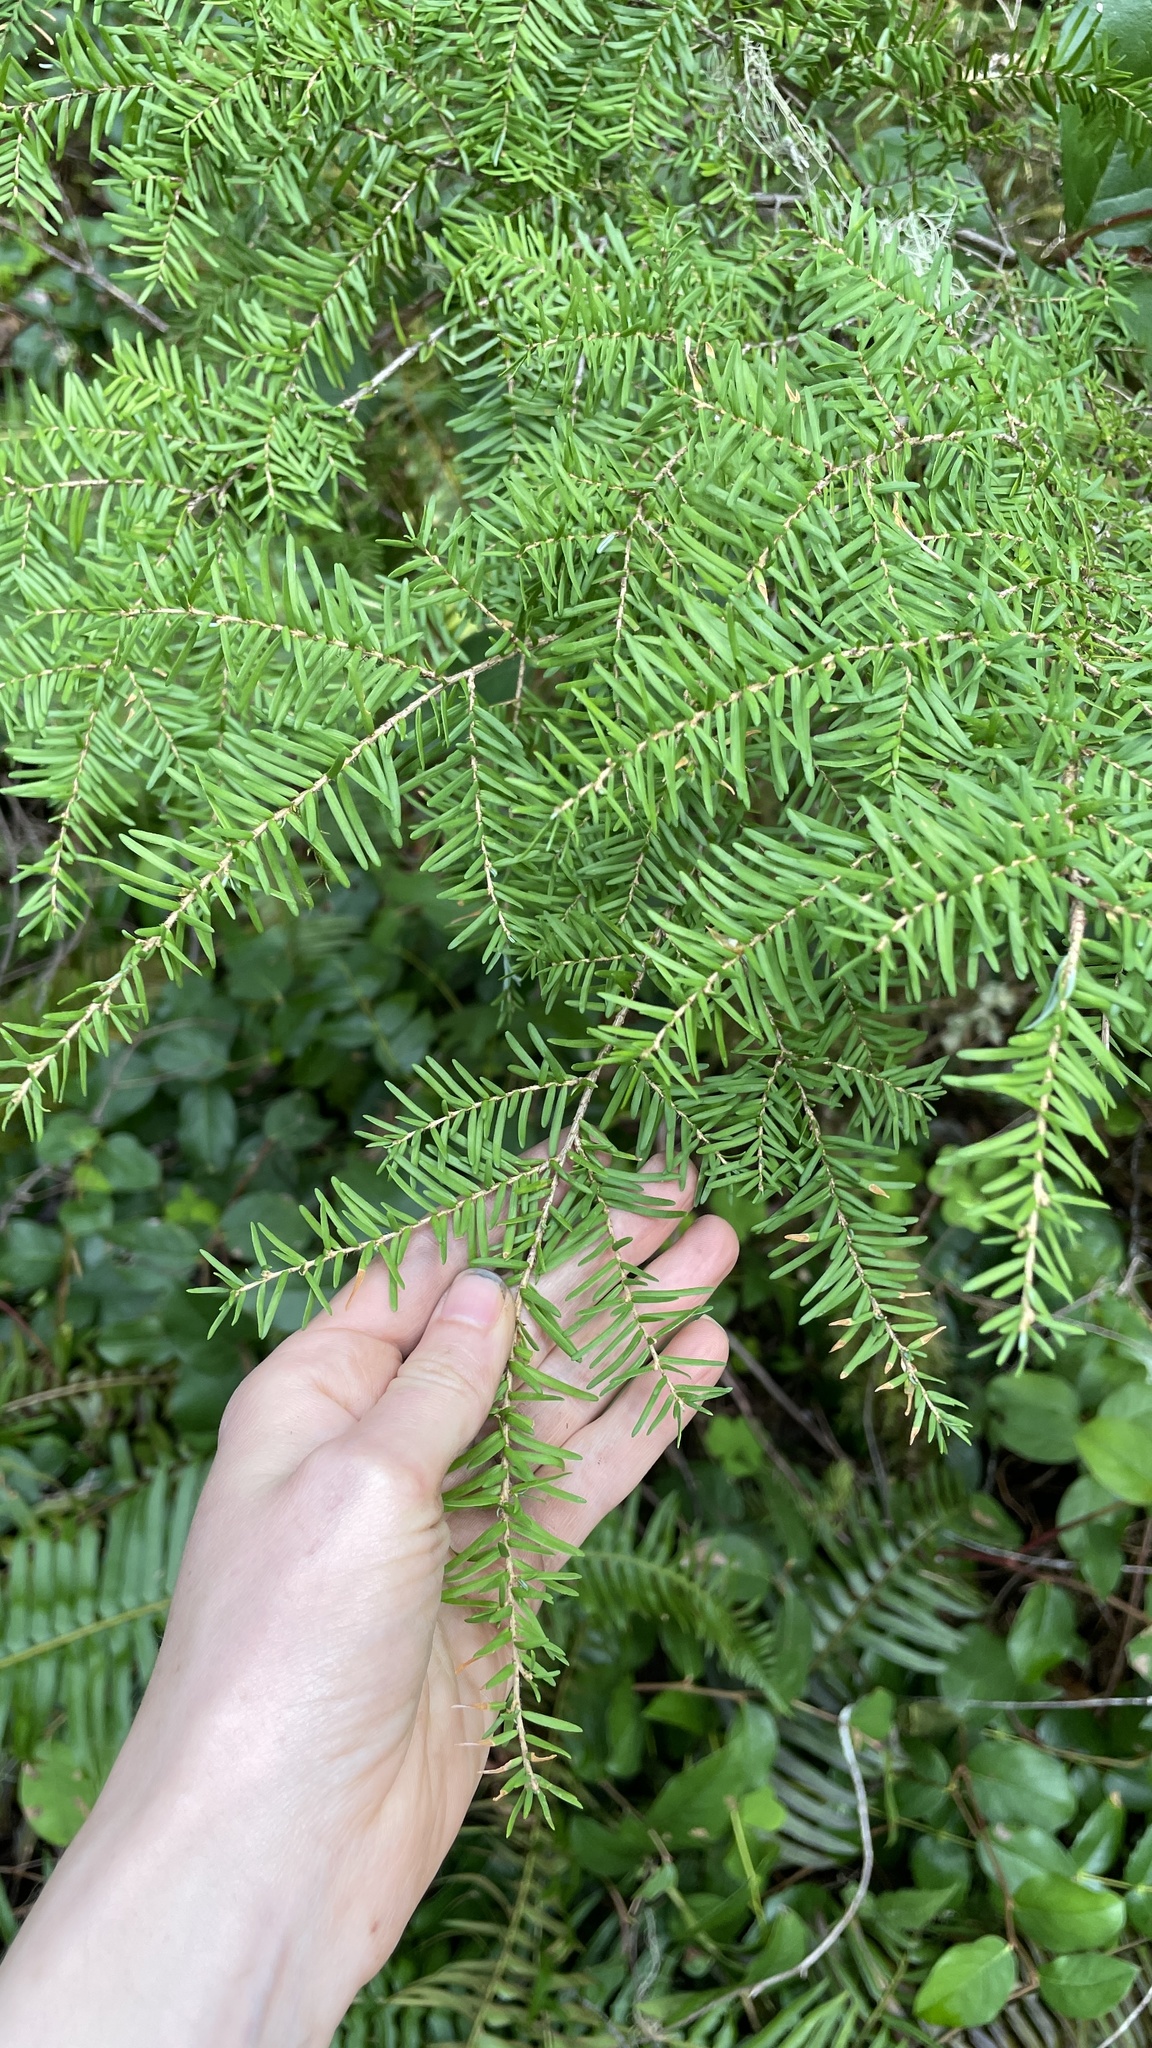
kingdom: Plantae
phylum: Tracheophyta
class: Pinopsida
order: Pinales
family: Pinaceae
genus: Tsuga
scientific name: Tsuga heterophylla
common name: Western hemlock
